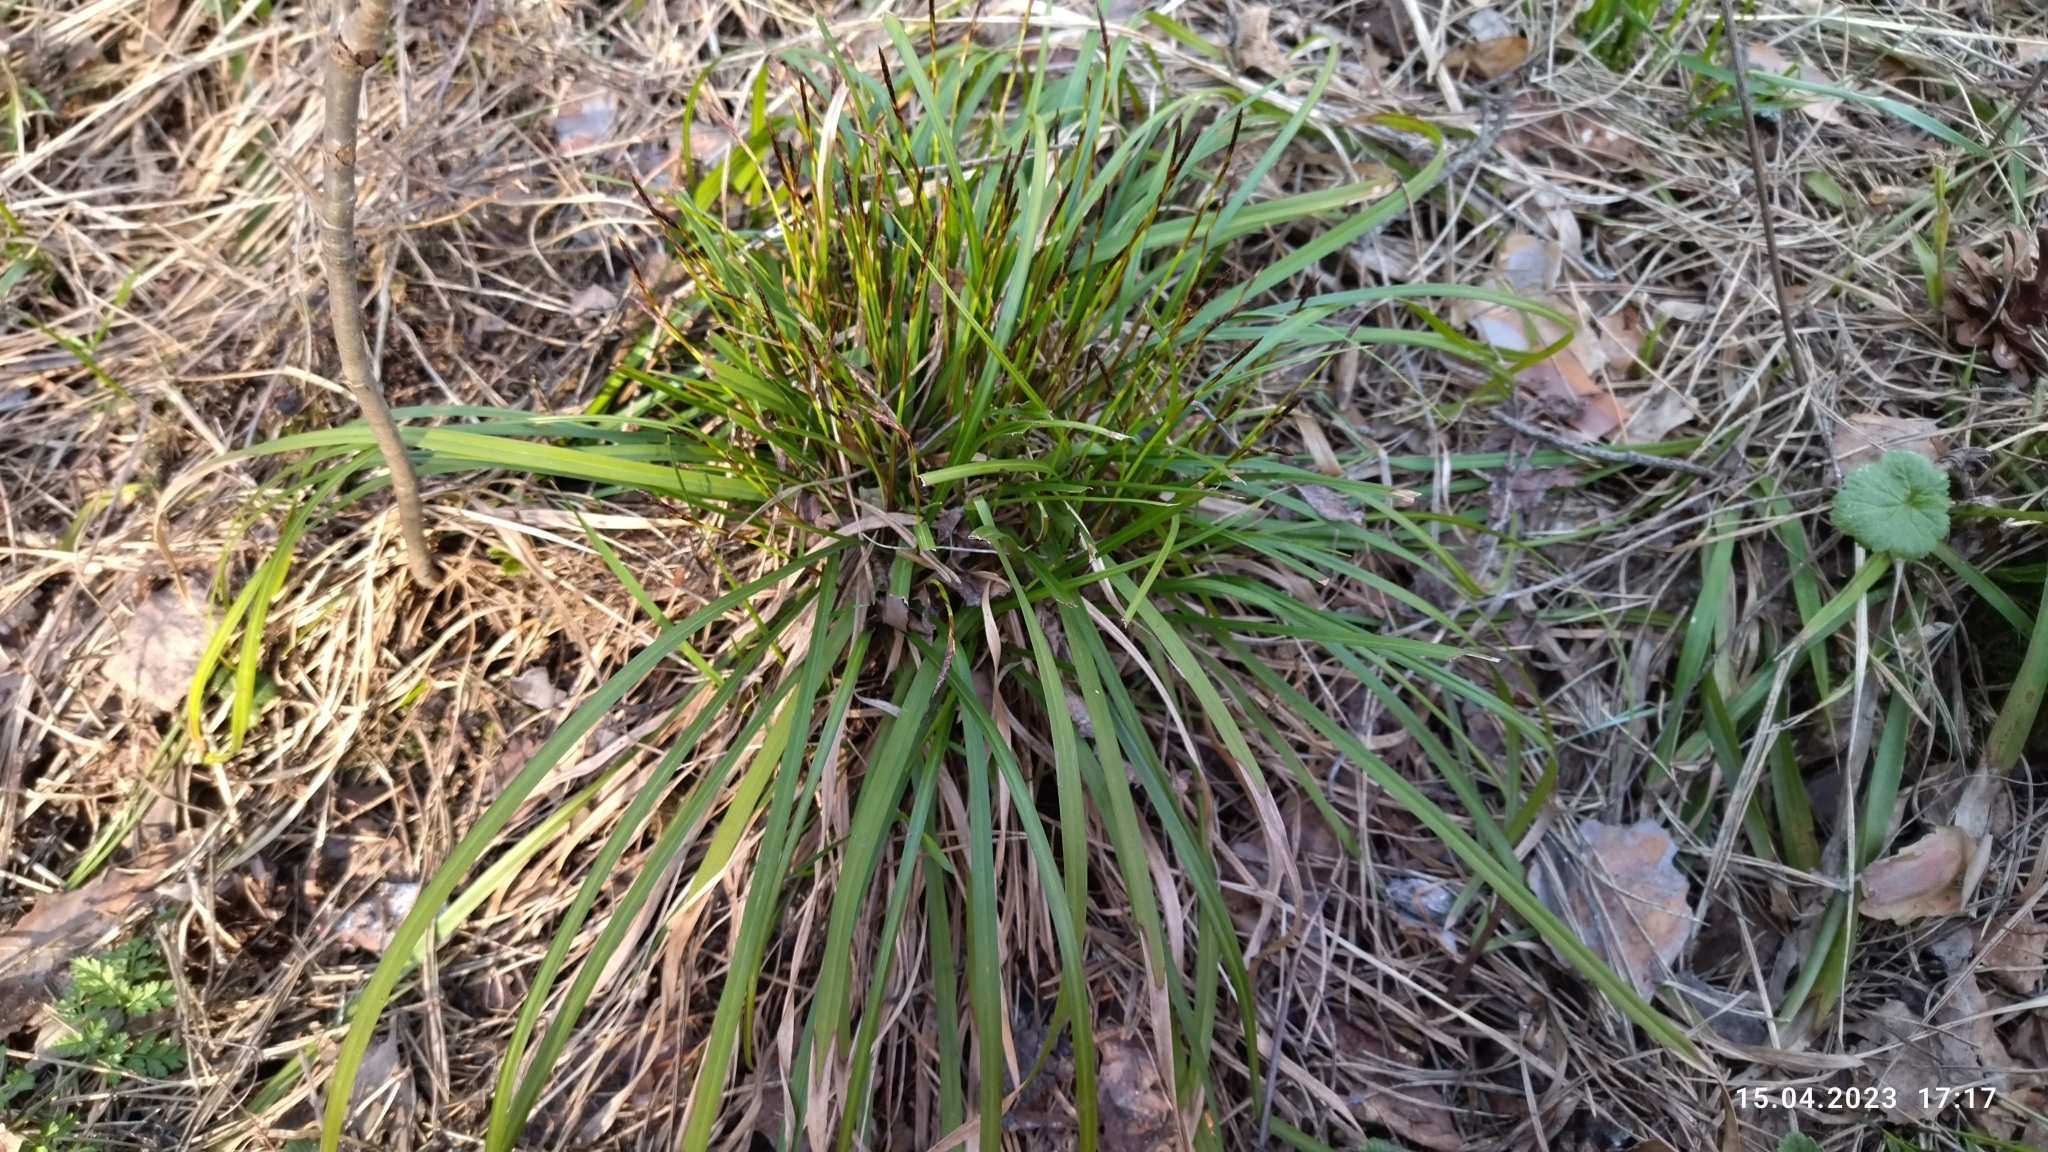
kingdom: Plantae
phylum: Tracheophyta
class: Liliopsida
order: Poales
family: Cyperaceae
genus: Carex
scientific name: Carex digitata
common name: Fingered sedge
